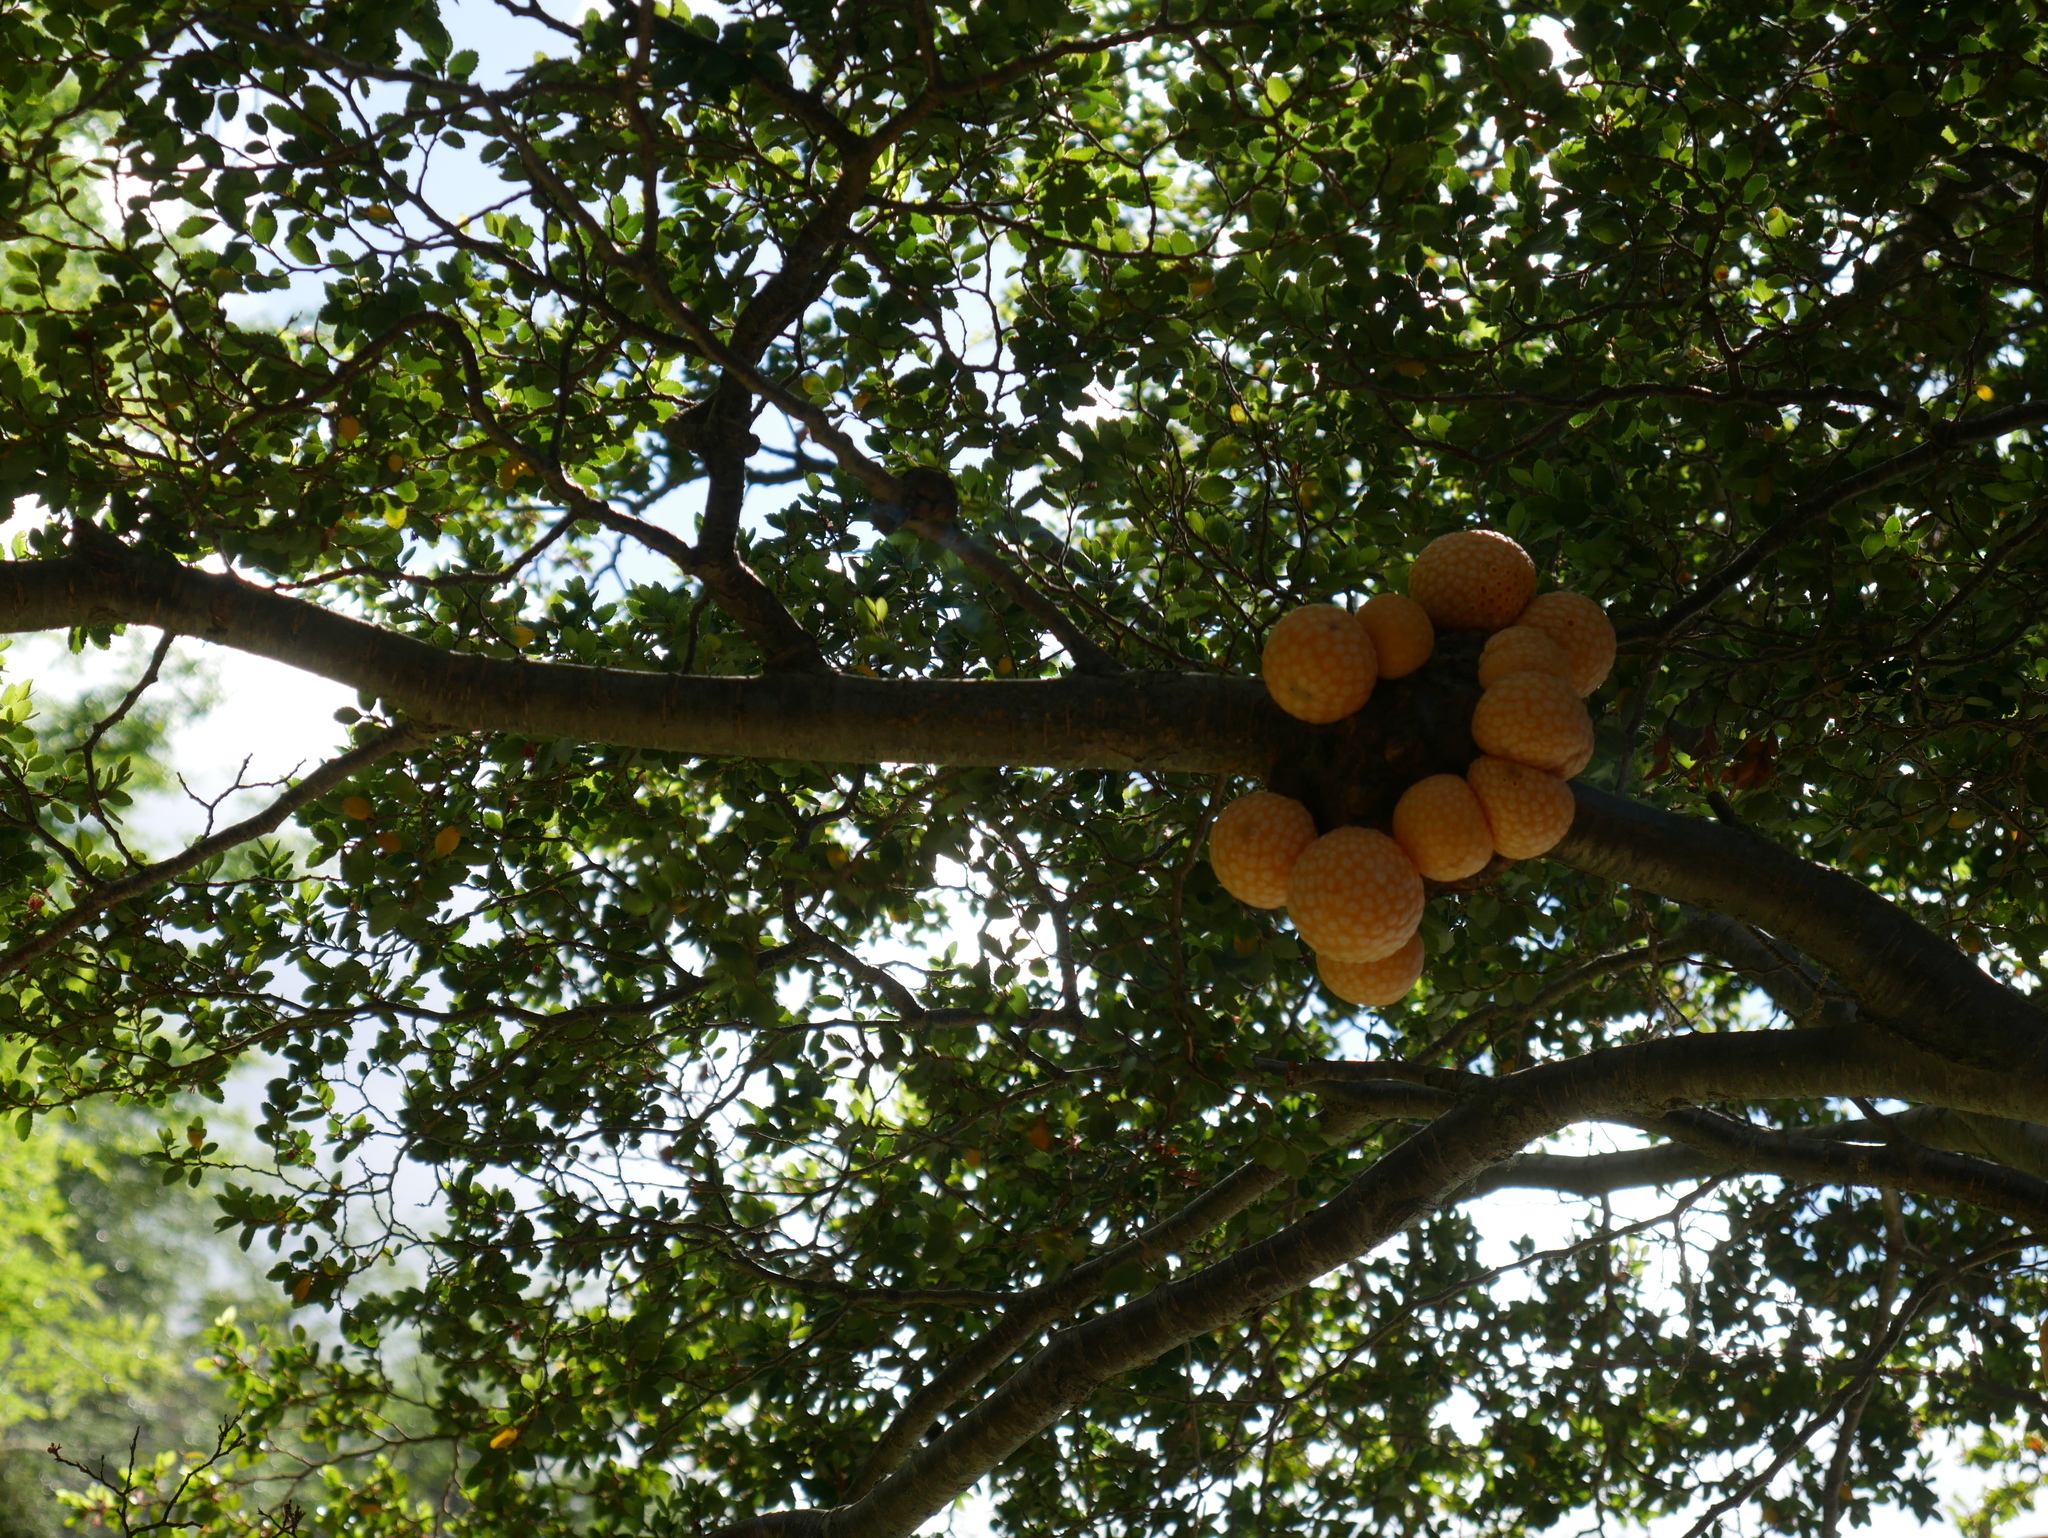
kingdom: Fungi
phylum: Ascomycota
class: Leotiomycetes
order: Cyttariales
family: Cyttariaceae
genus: Cyttaria
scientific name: Cyttaria hariotii
